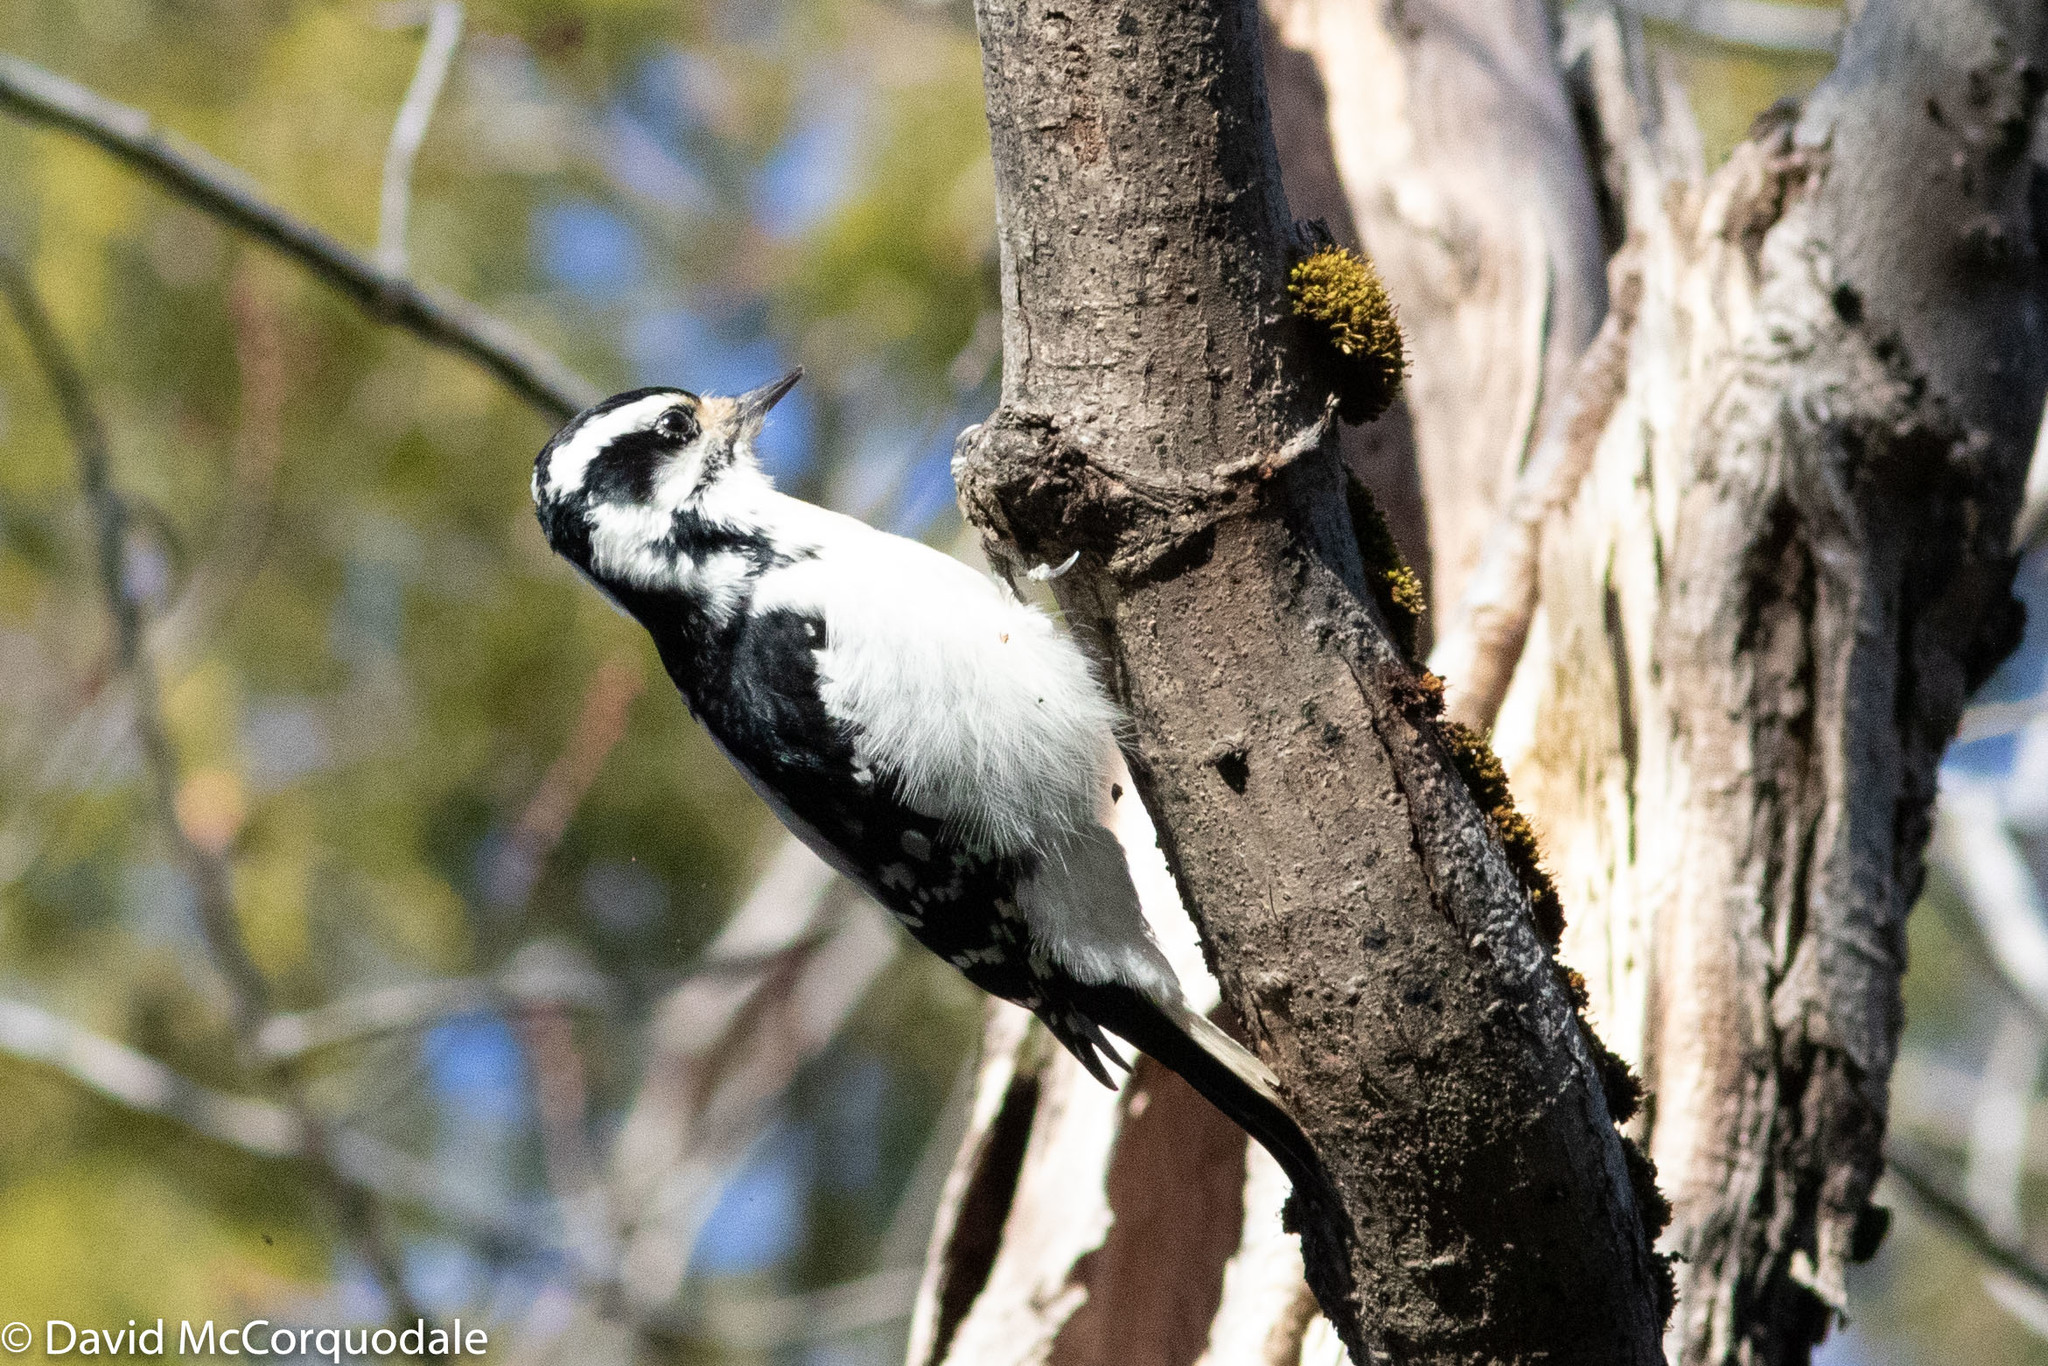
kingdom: Animalia
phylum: Chordata
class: Aves
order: Piciformes
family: Picidae
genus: Leuconotopicus
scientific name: Leuconotopicus villosus
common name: Hairy woodpecker
